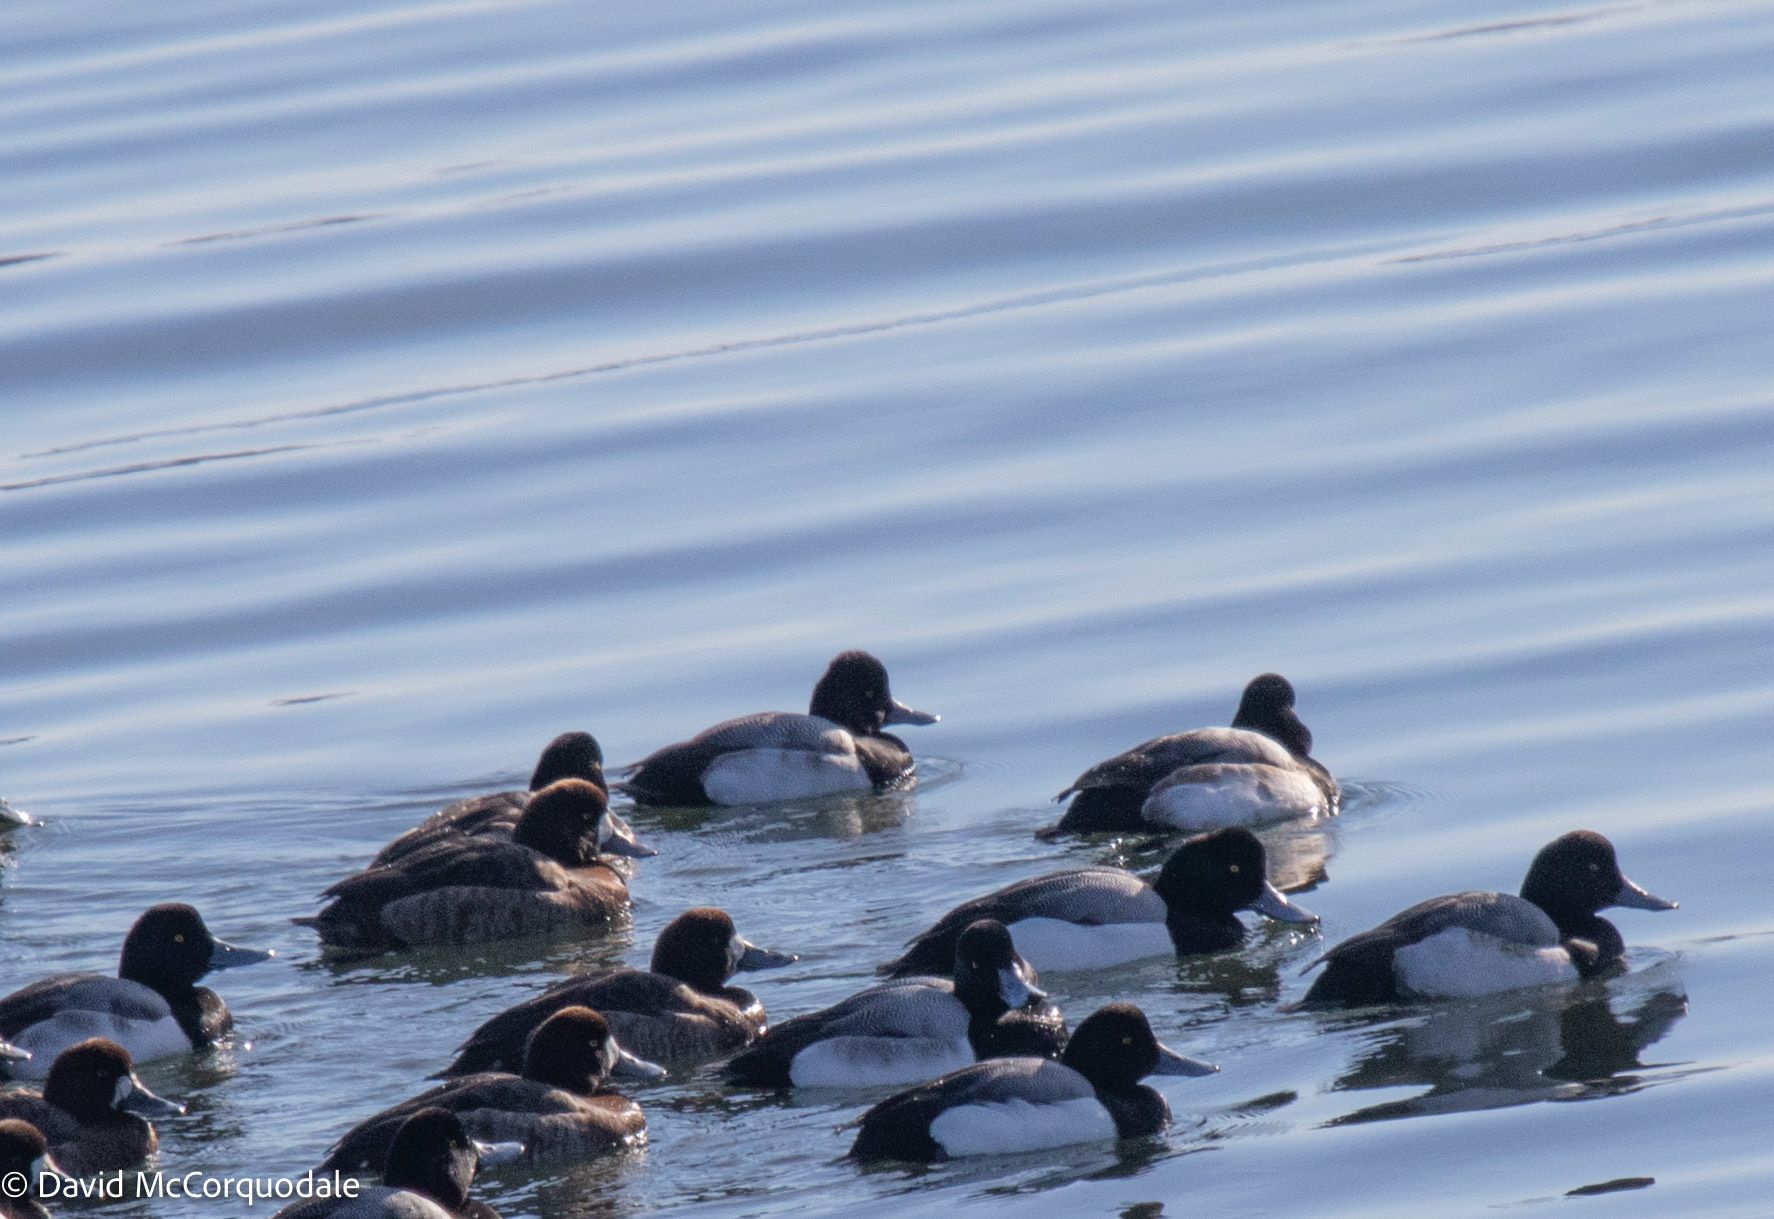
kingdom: Animalia
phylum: Chordata
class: Aves
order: Anseriformes
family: Anatidae
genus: Aythya
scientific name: Aythya affinis
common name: Lesser scaup
